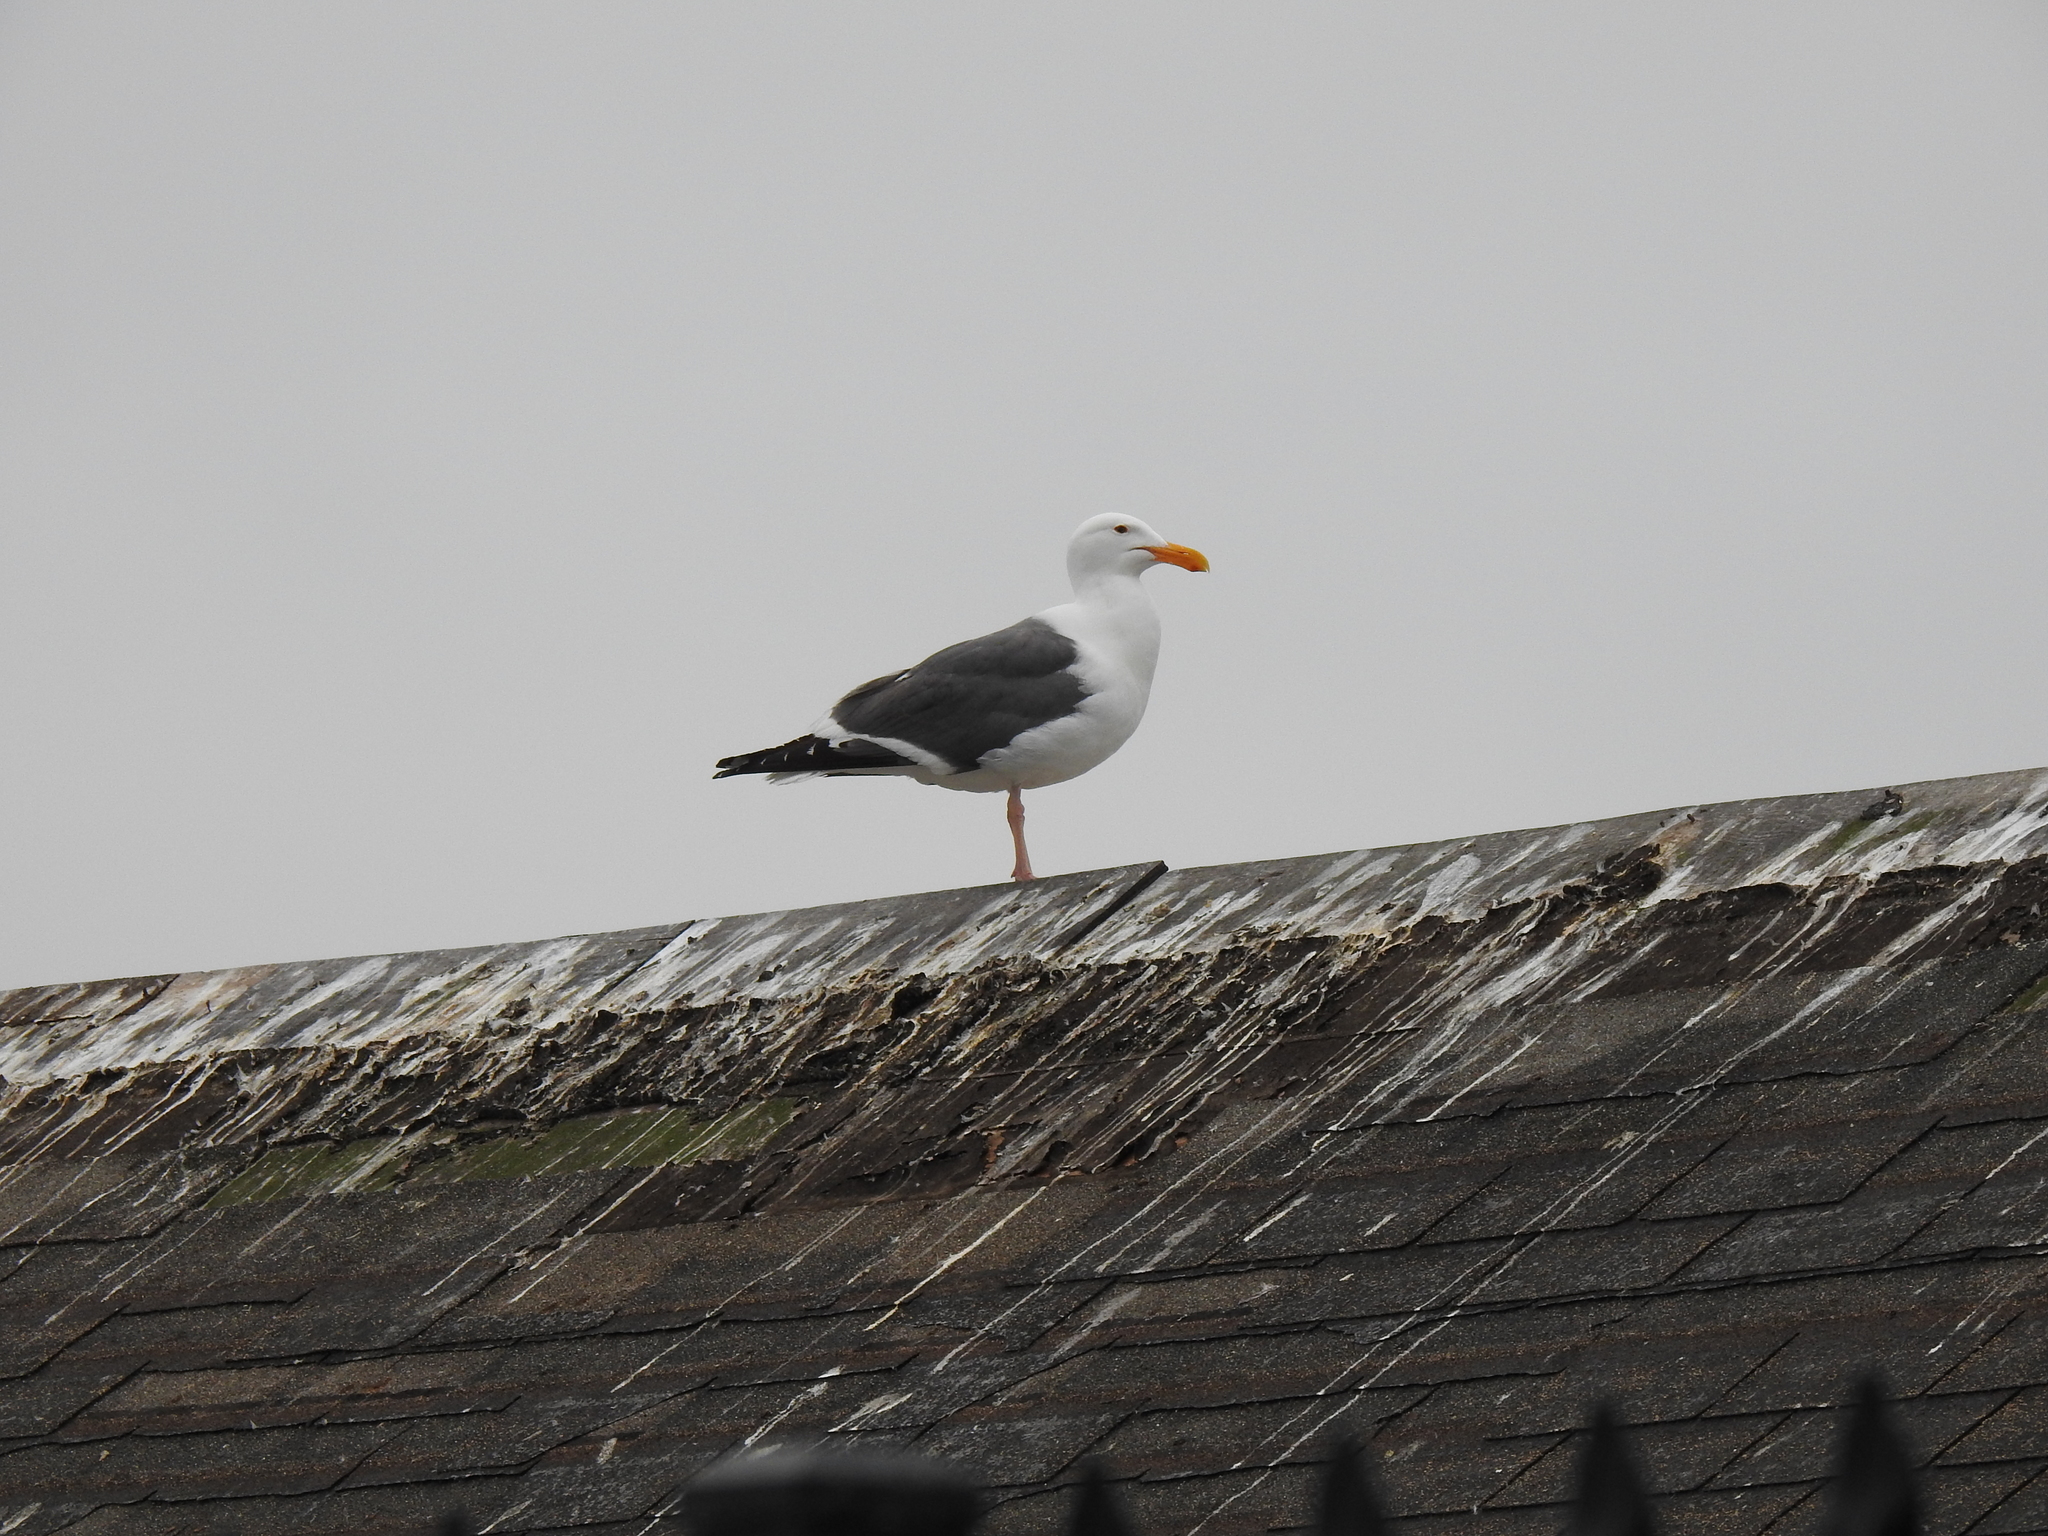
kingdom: Animalia
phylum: Chordata
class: Aves
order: Charadriiformes
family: Laridae
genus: Larus
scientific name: Larus occidentalis
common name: Western gull
